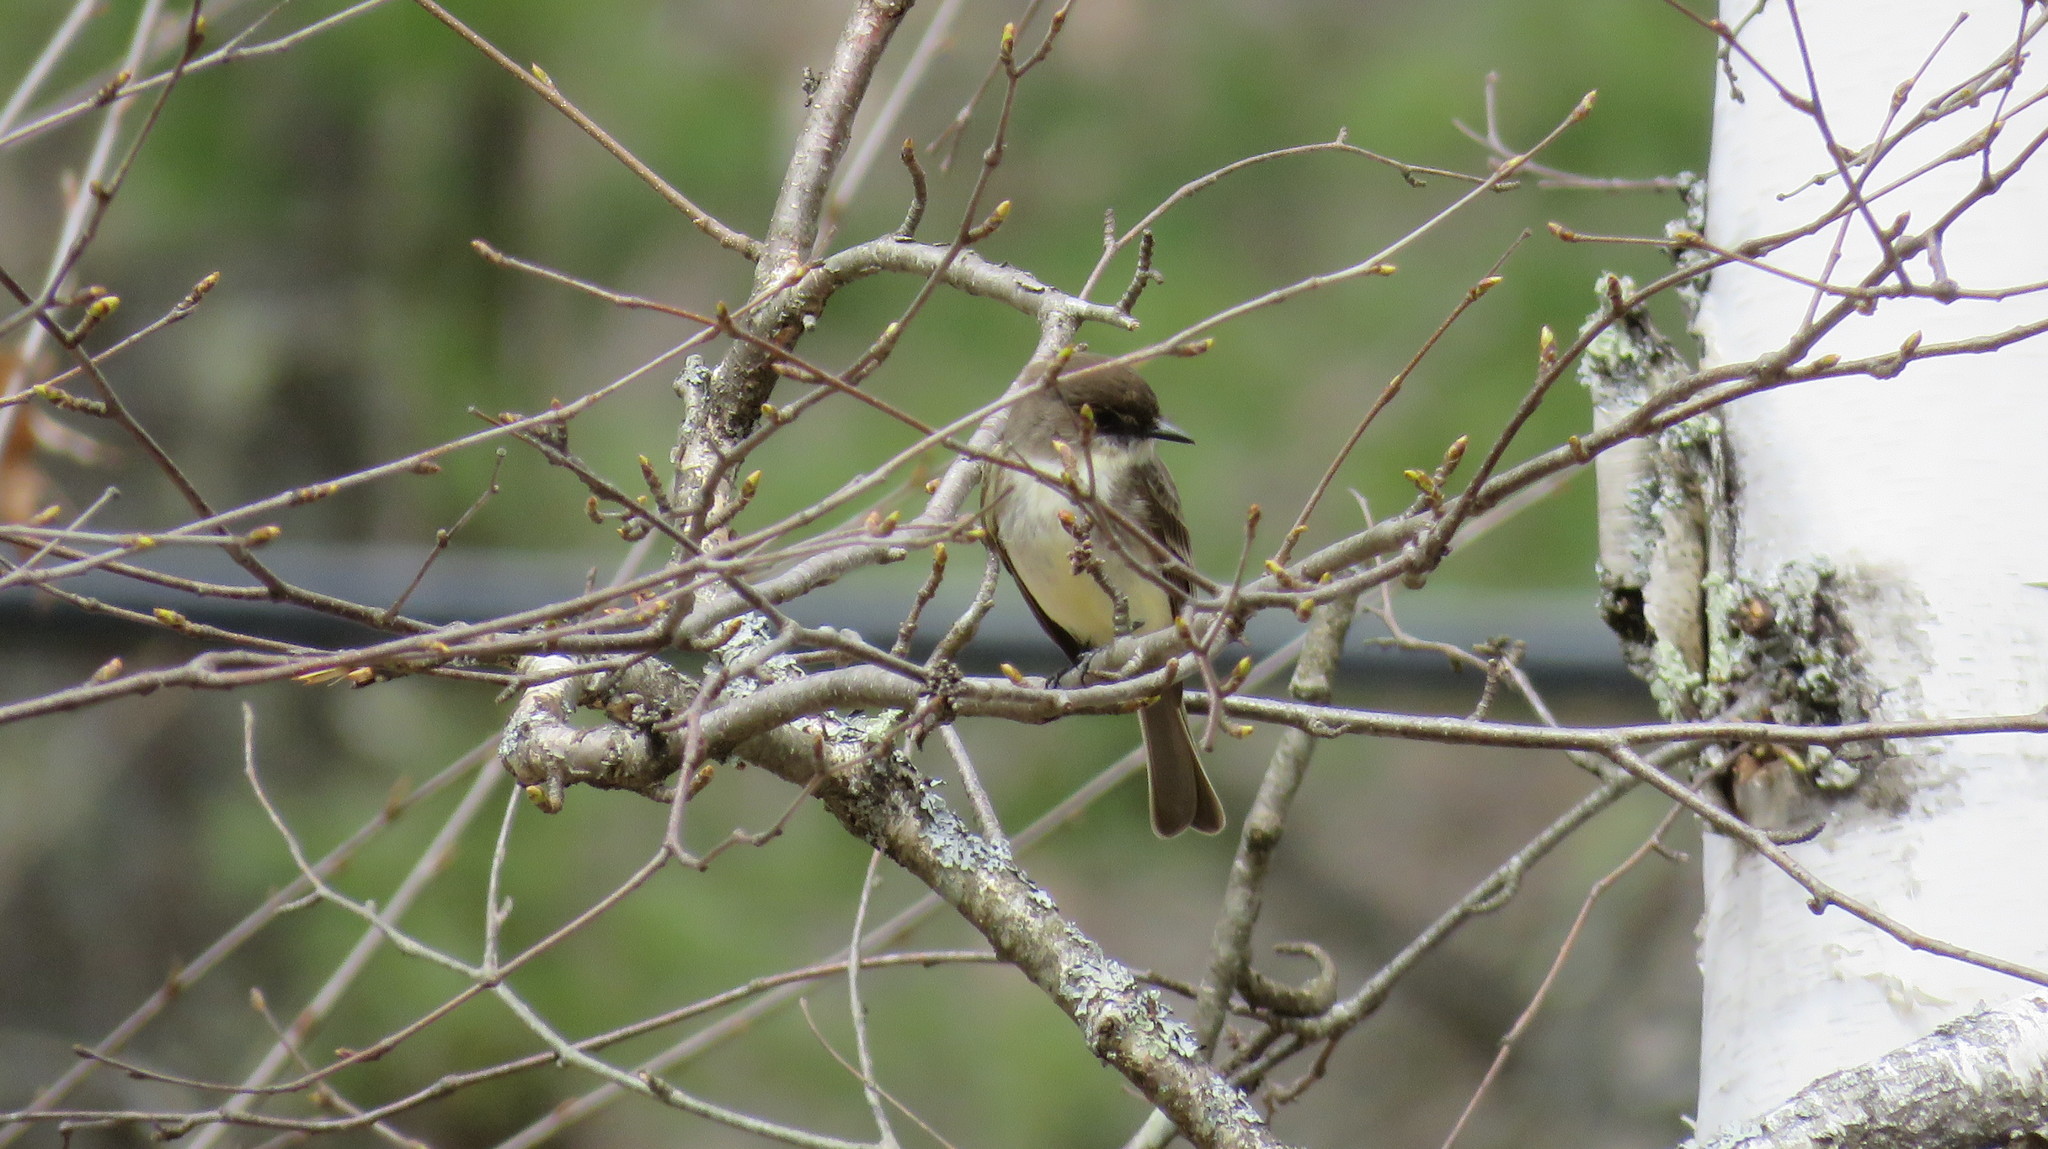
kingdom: Animalia
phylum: Chordata
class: Aves
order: Passeriformes
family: Tyrannidae
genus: Sayornis
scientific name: Sayornis phoebe
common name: Eastern phoebe
